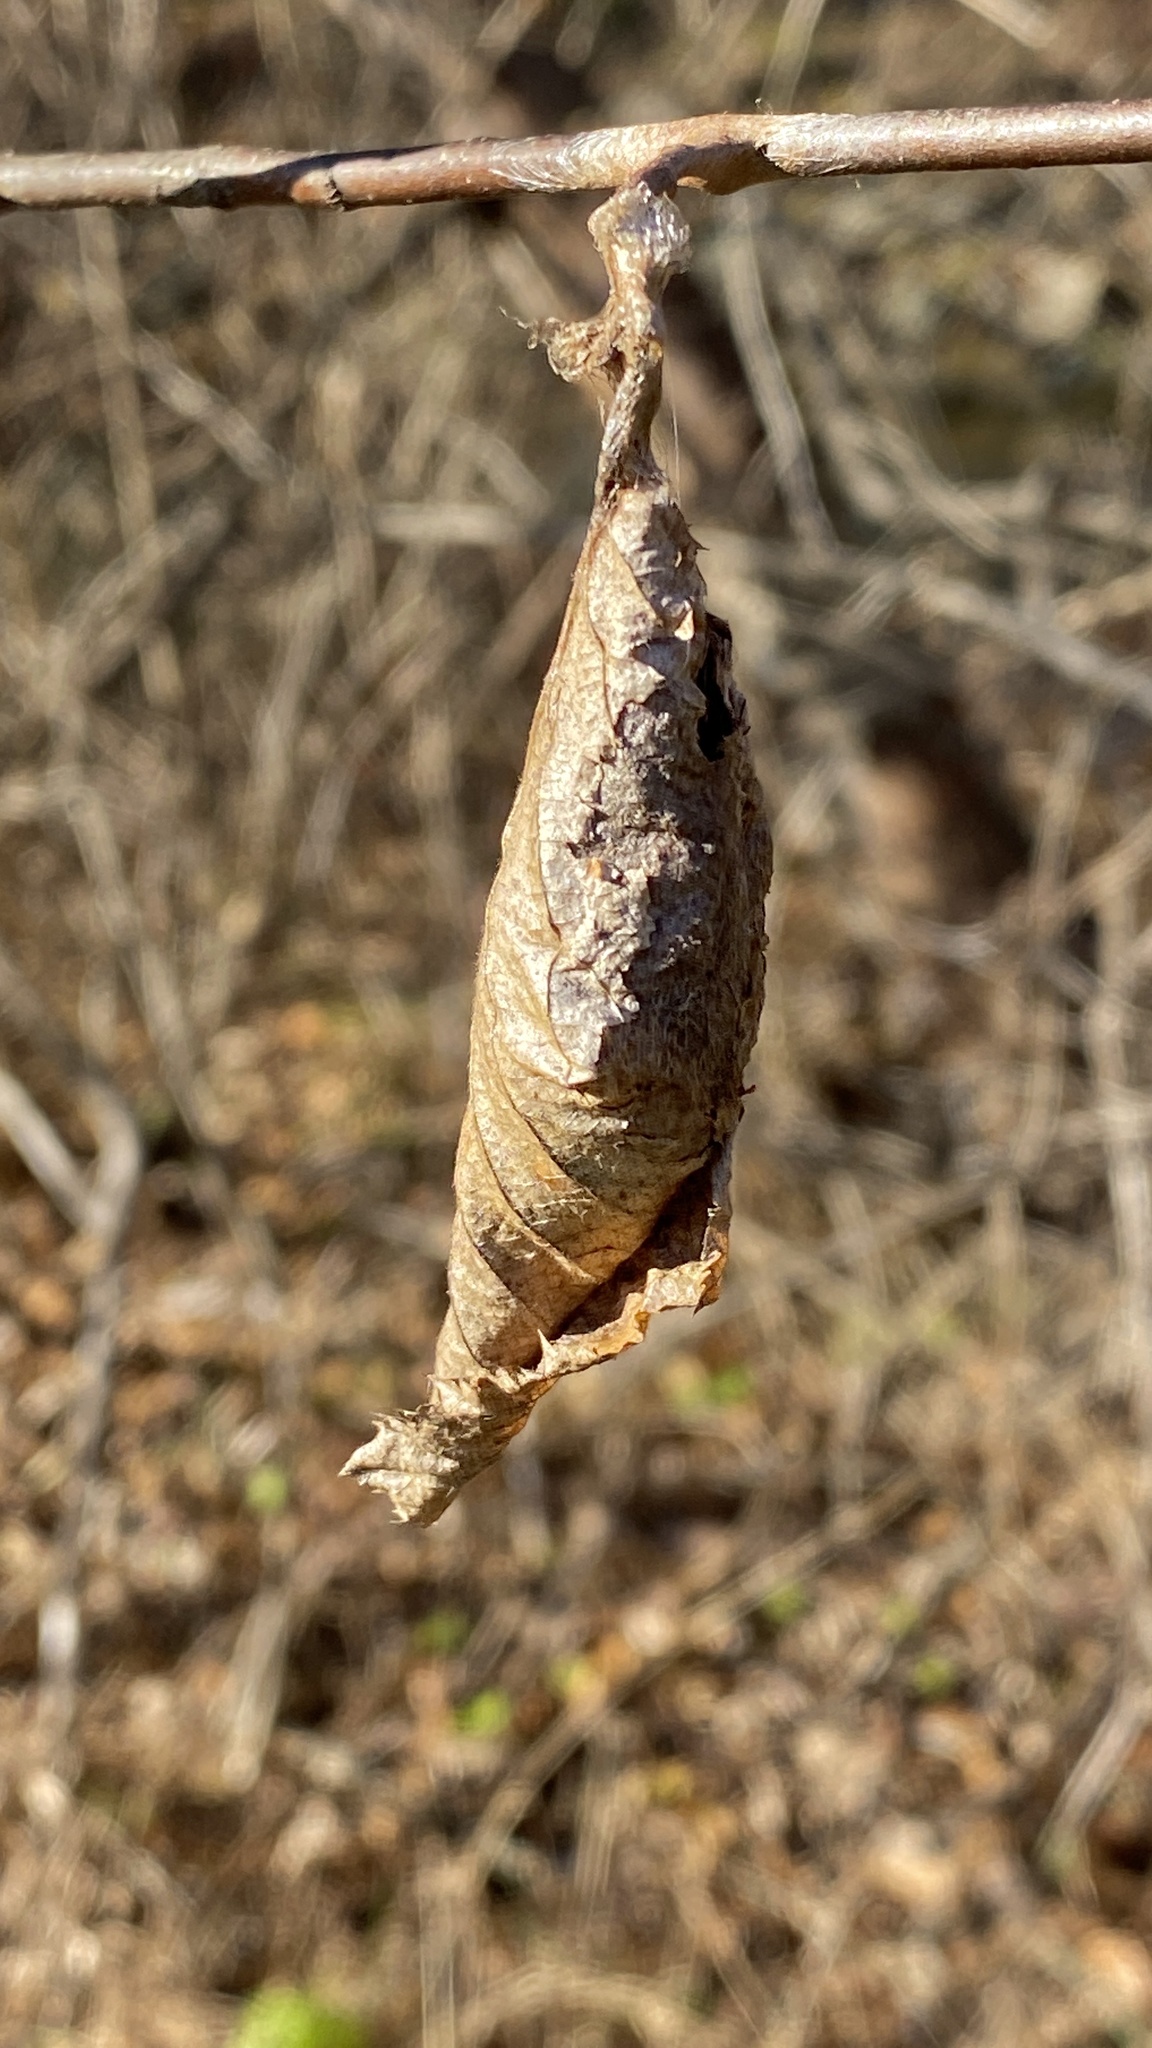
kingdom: Animalia
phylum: Arthropoda
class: Insecta
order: Lepidoptera
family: Saturniidae
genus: Callosamia
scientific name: Callosamia promethea
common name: Promethea silkmoth
